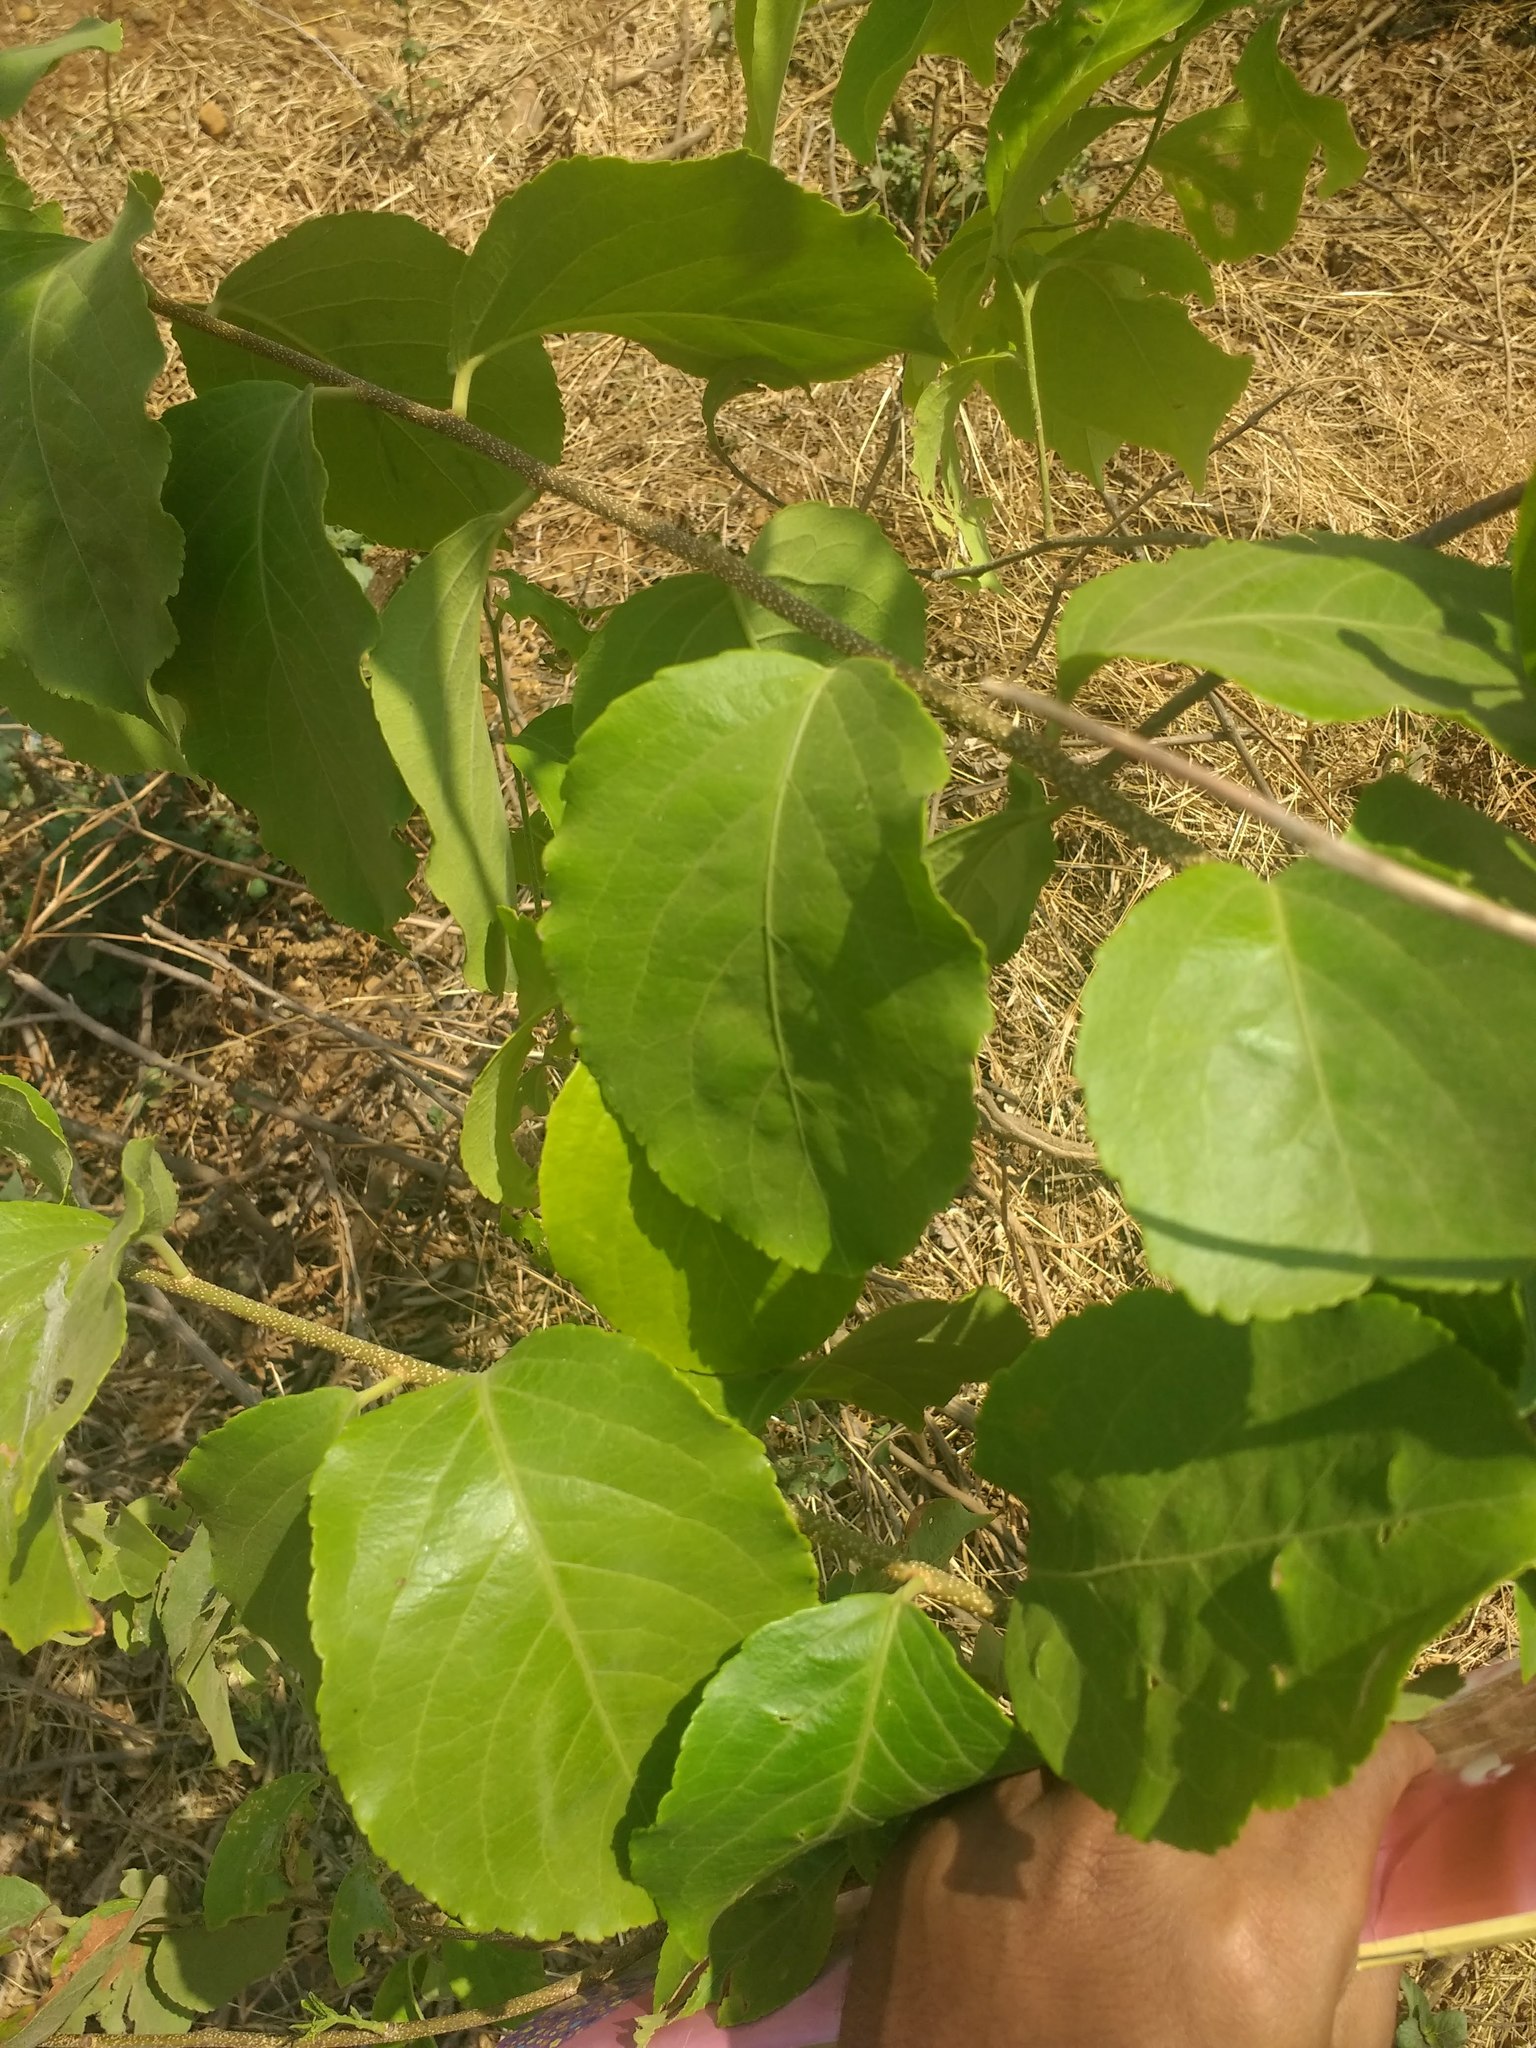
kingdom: Plantae
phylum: Tracheophyta
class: Magnoliopsida
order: Celastrales
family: Celastraceae
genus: Celastrus
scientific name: Celastrus paniculatus
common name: Oriental bittersweet; staff vine
